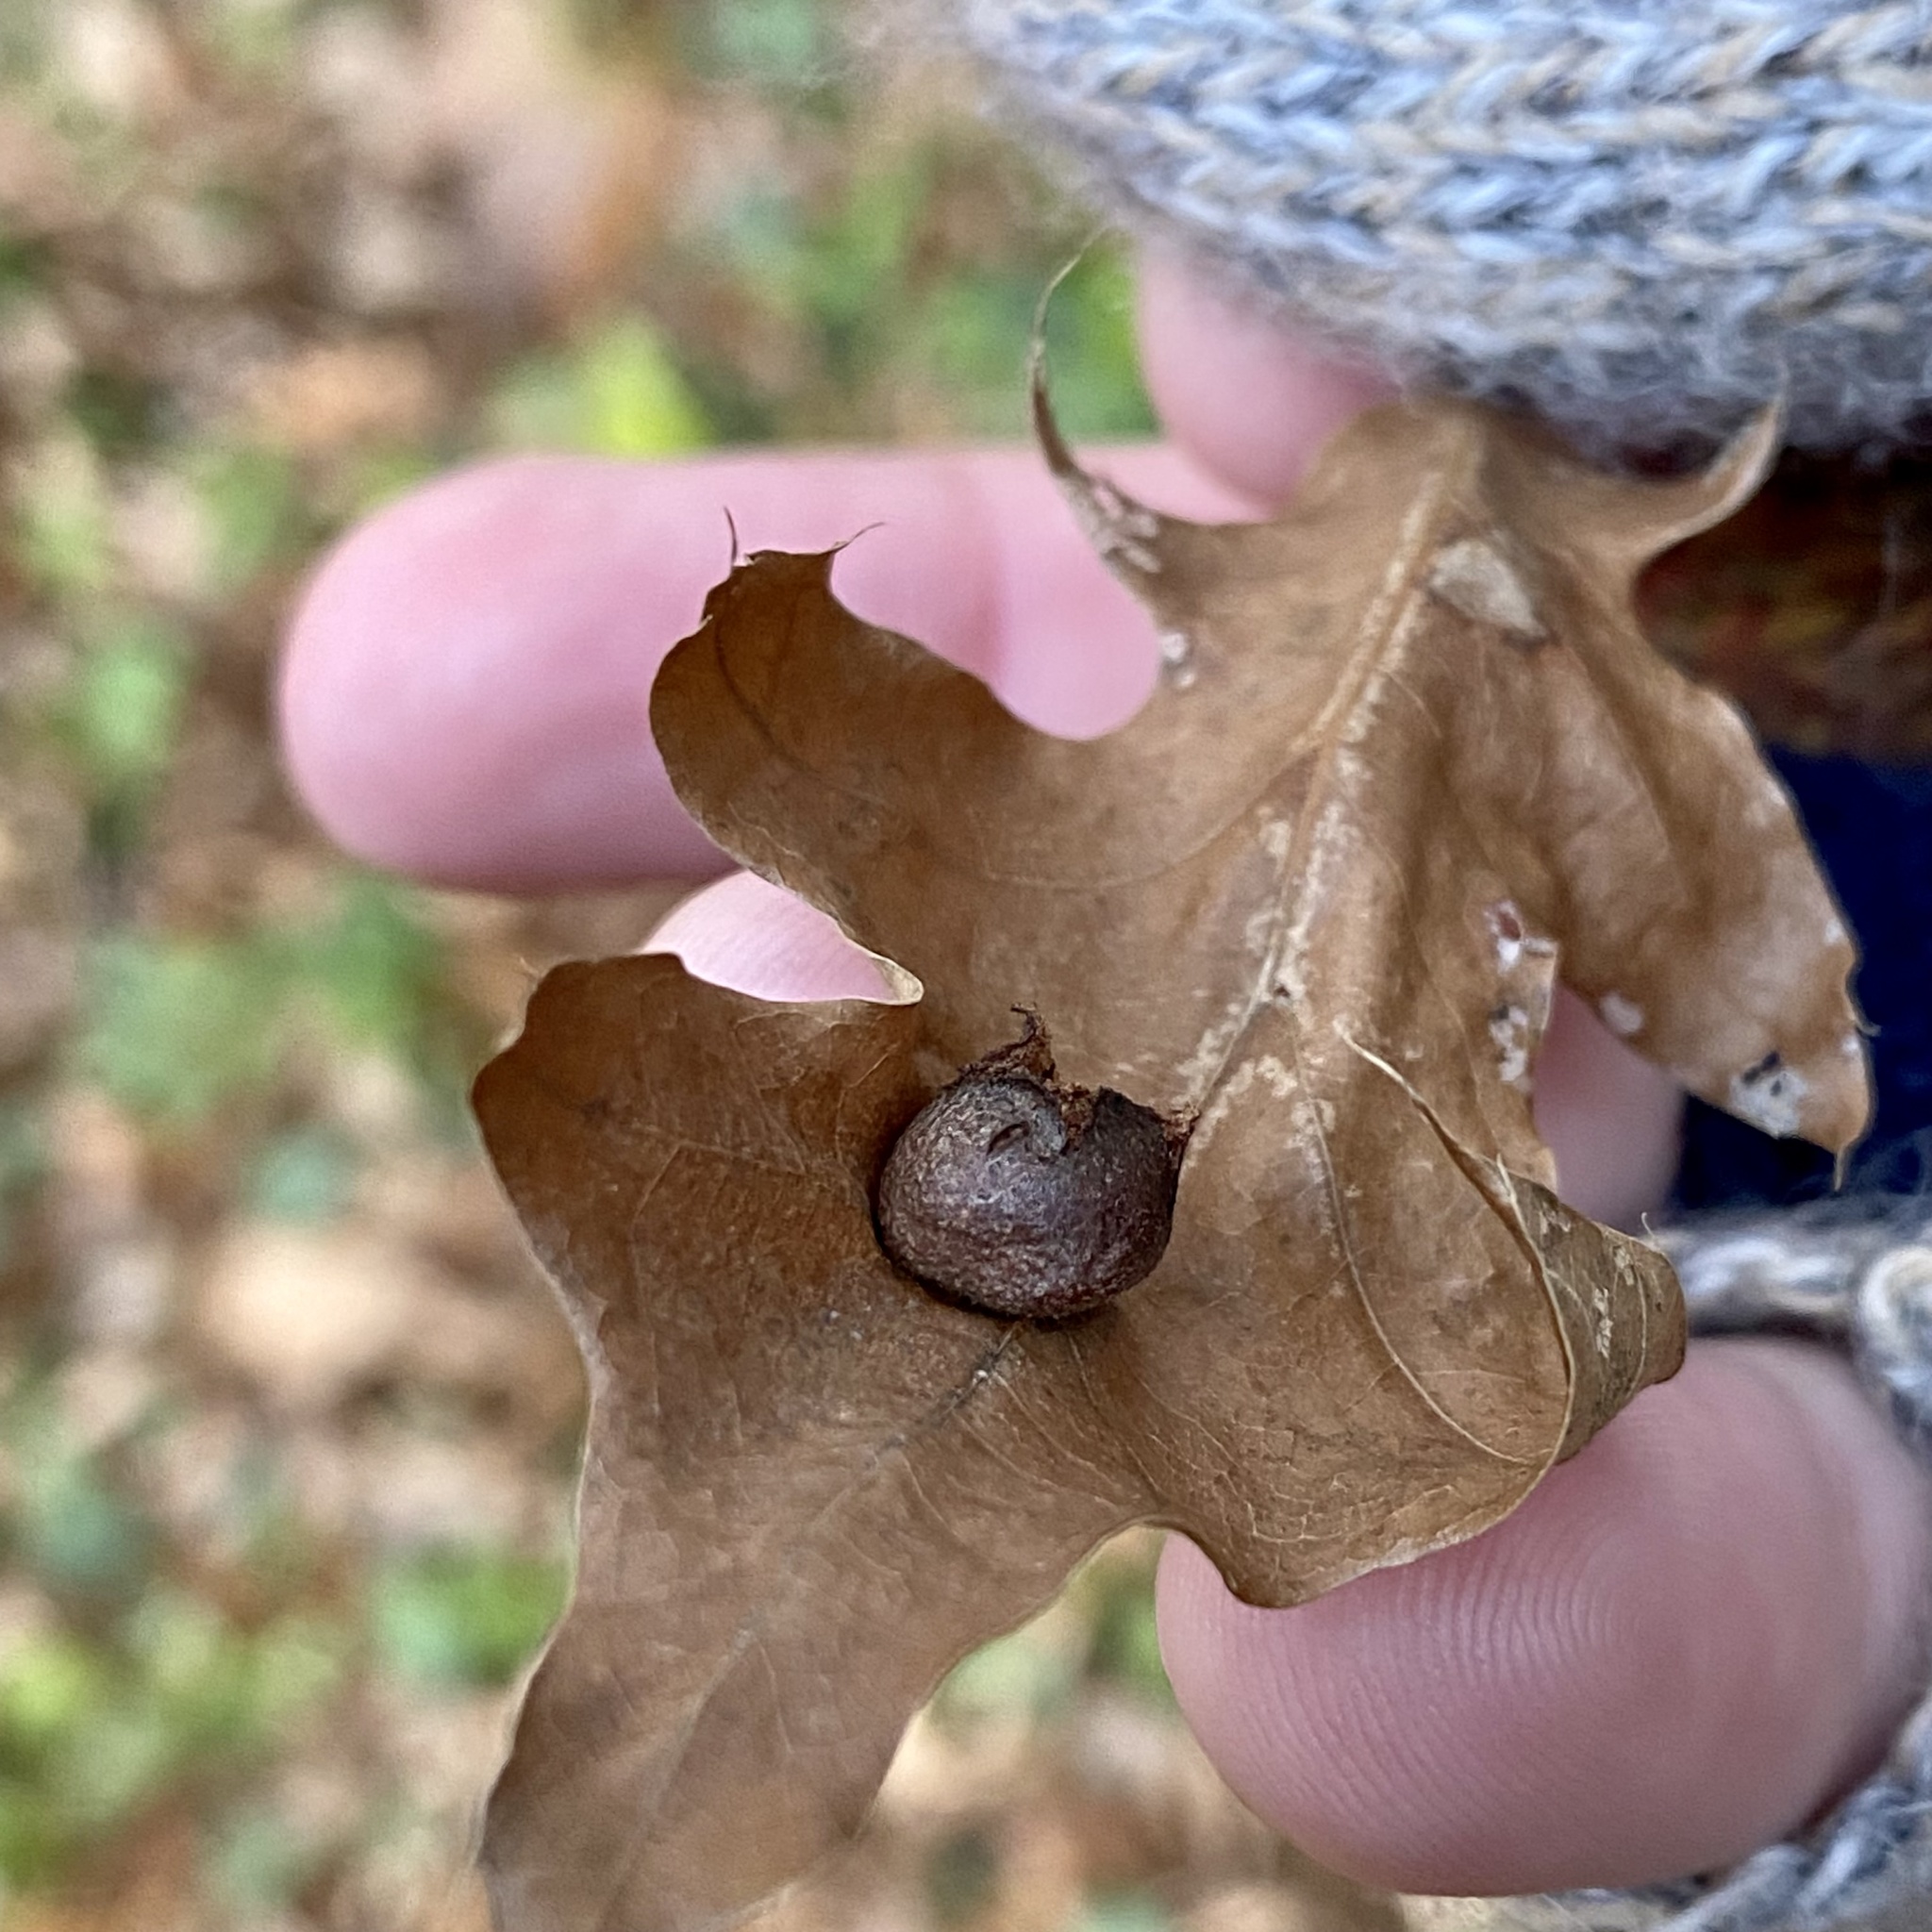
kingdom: Animalia
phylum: Arthropoda
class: Insecta
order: Diptera
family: Cecidomyiidae
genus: Polystepha
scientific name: Polystepha pilulae
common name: Oak leaf gall midge
